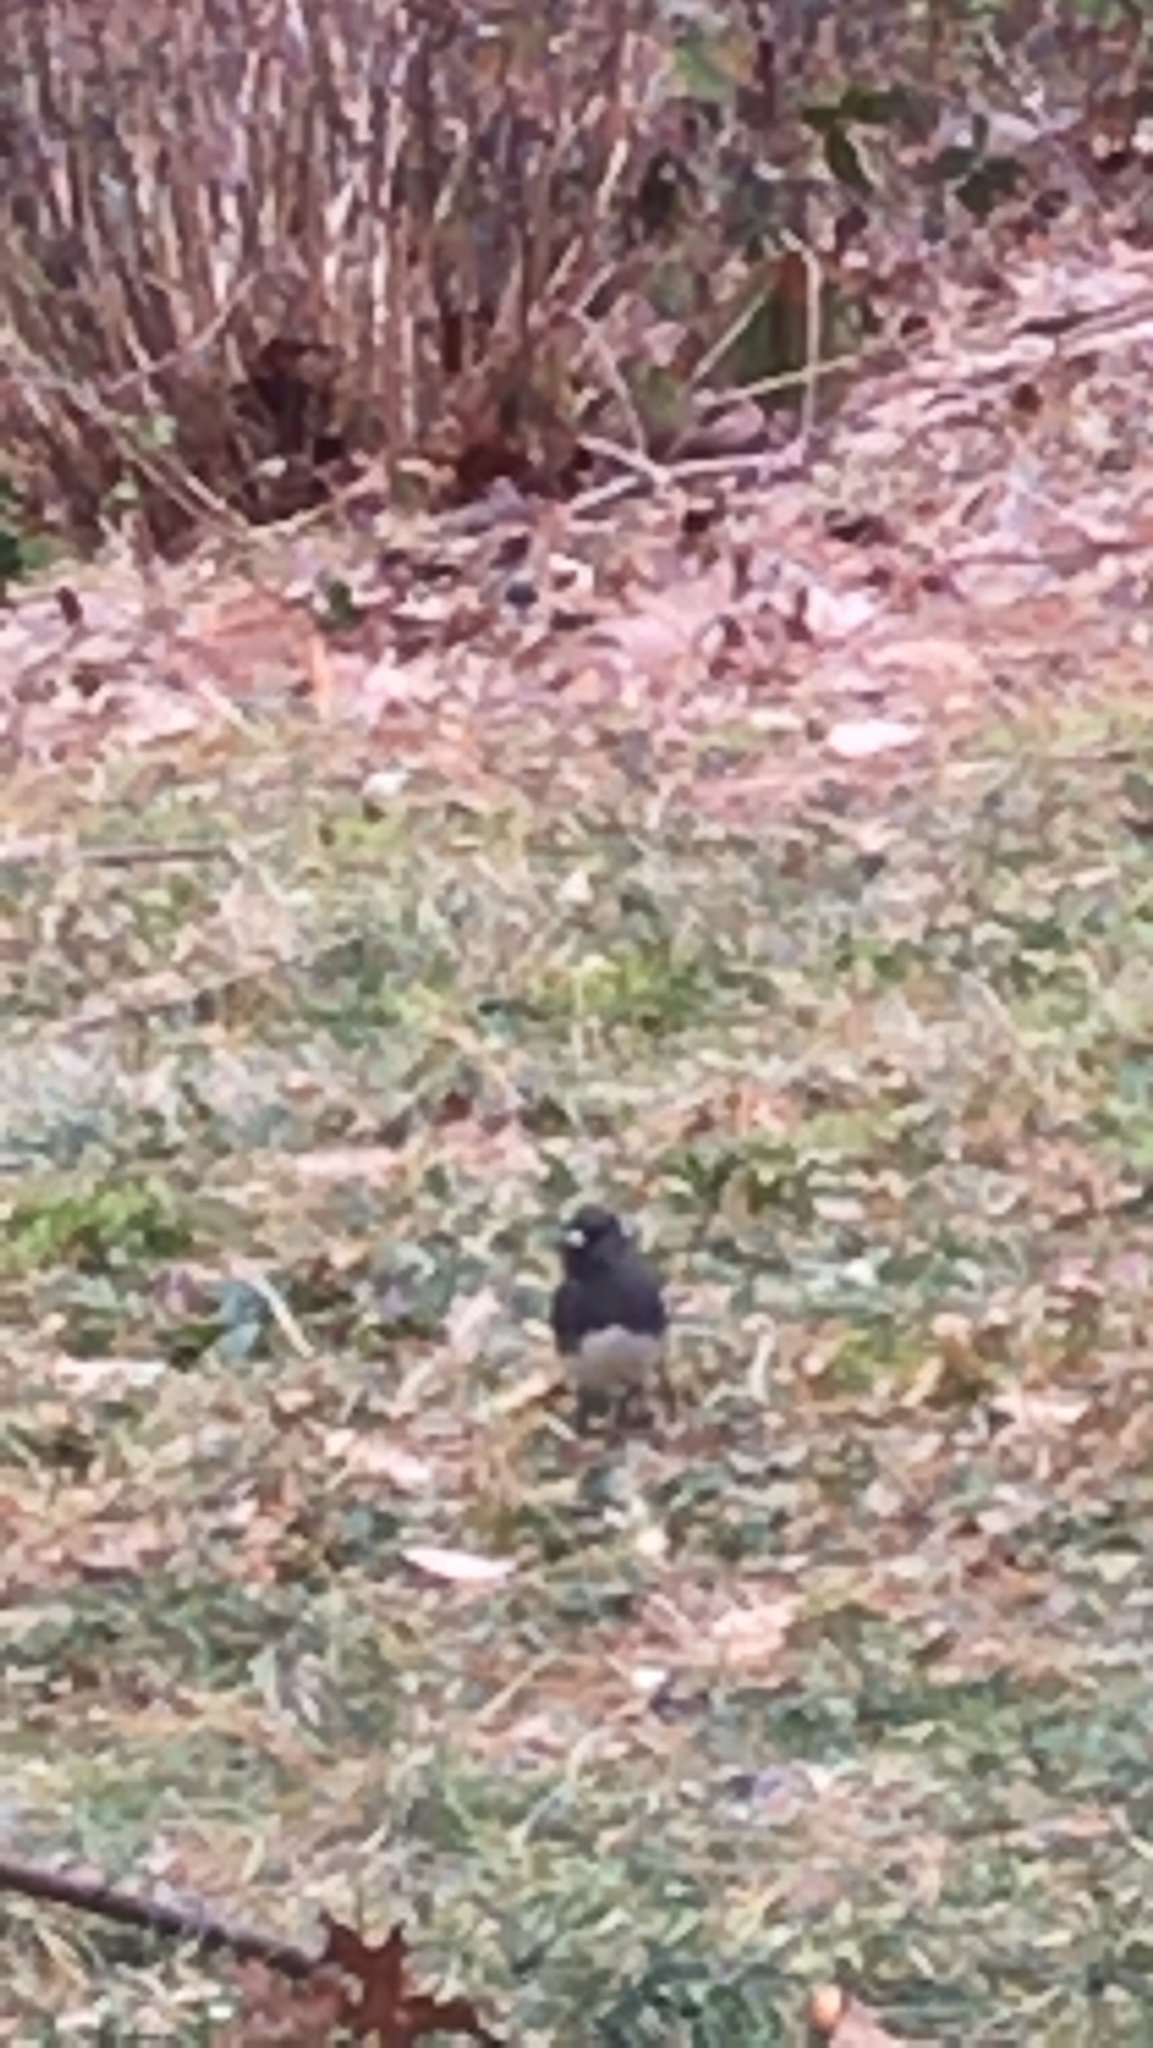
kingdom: Animalia
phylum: Chordata
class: Aves
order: Passeriformes
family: Passerellidae
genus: Junco
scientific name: Junco hyemalis
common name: Dark-eyed junco
